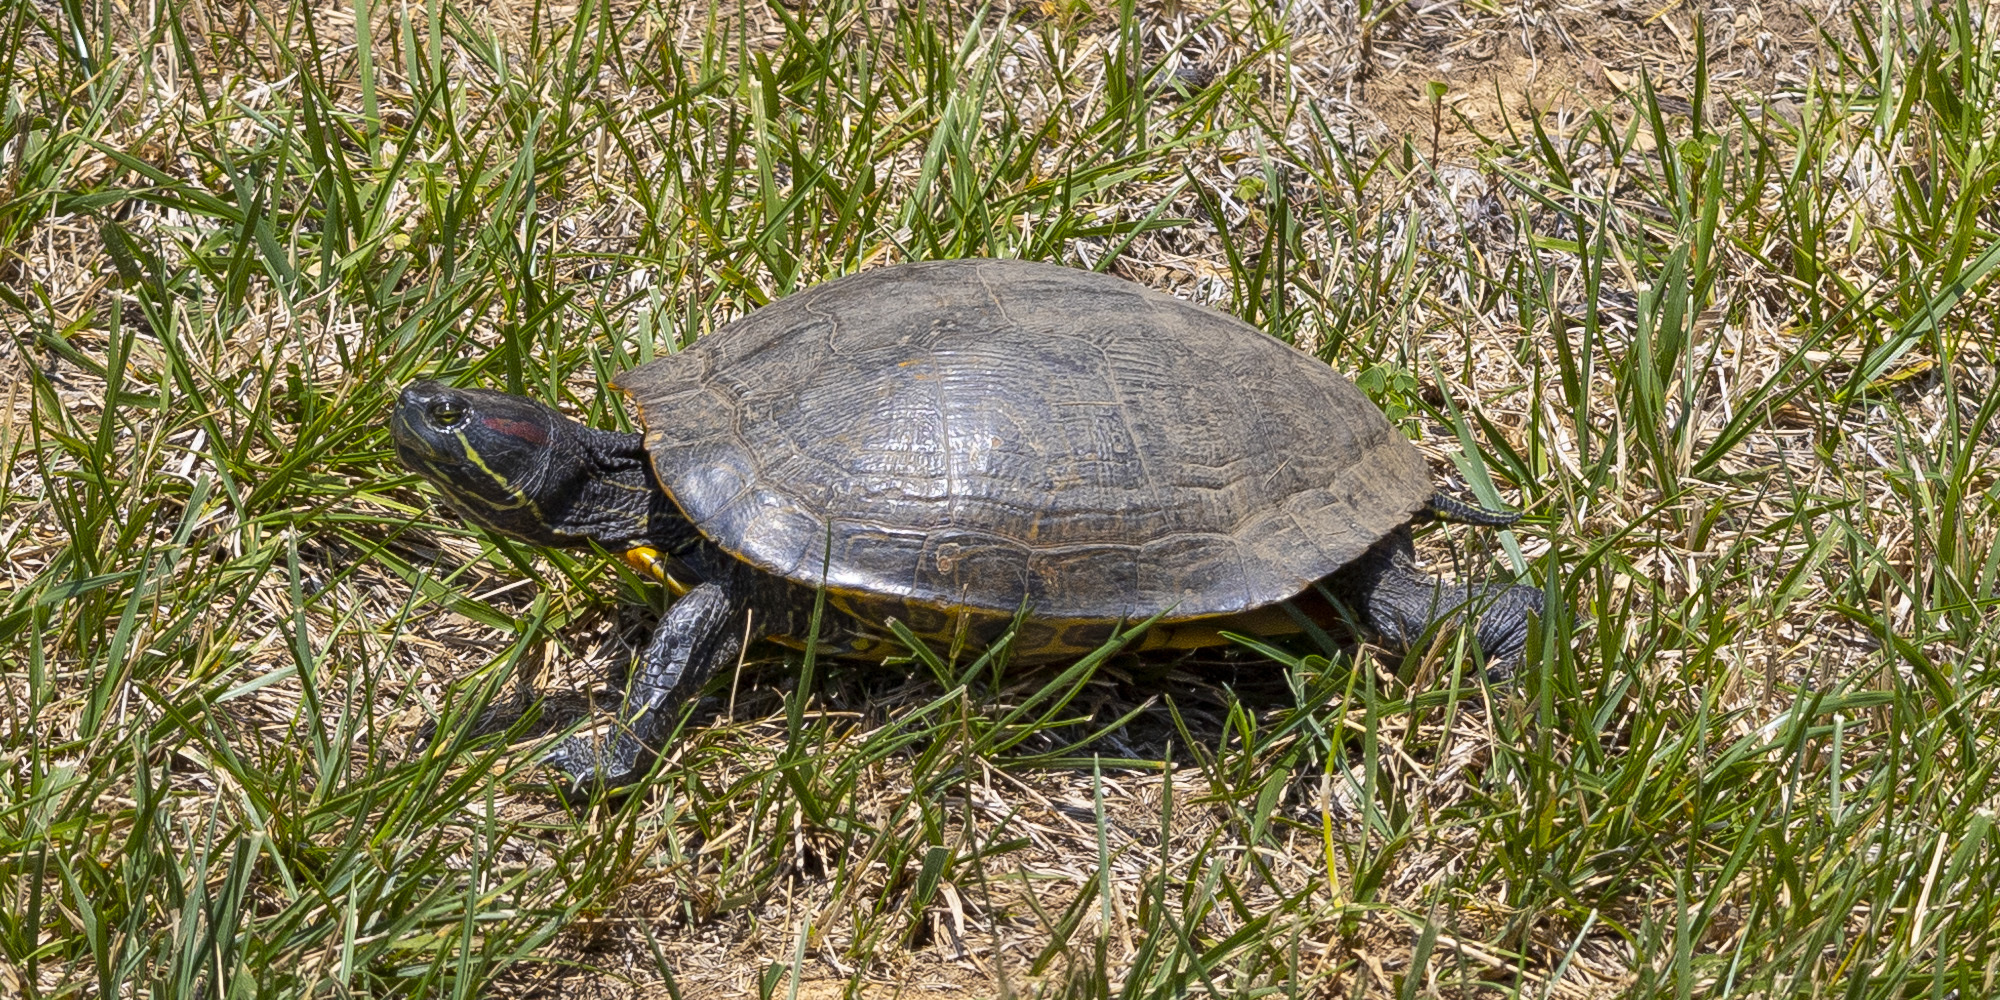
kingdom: Animalia
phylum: Chordata
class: Testudines
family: Emydidae
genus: Trachemys
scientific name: Trachemys scripta
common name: Slider
